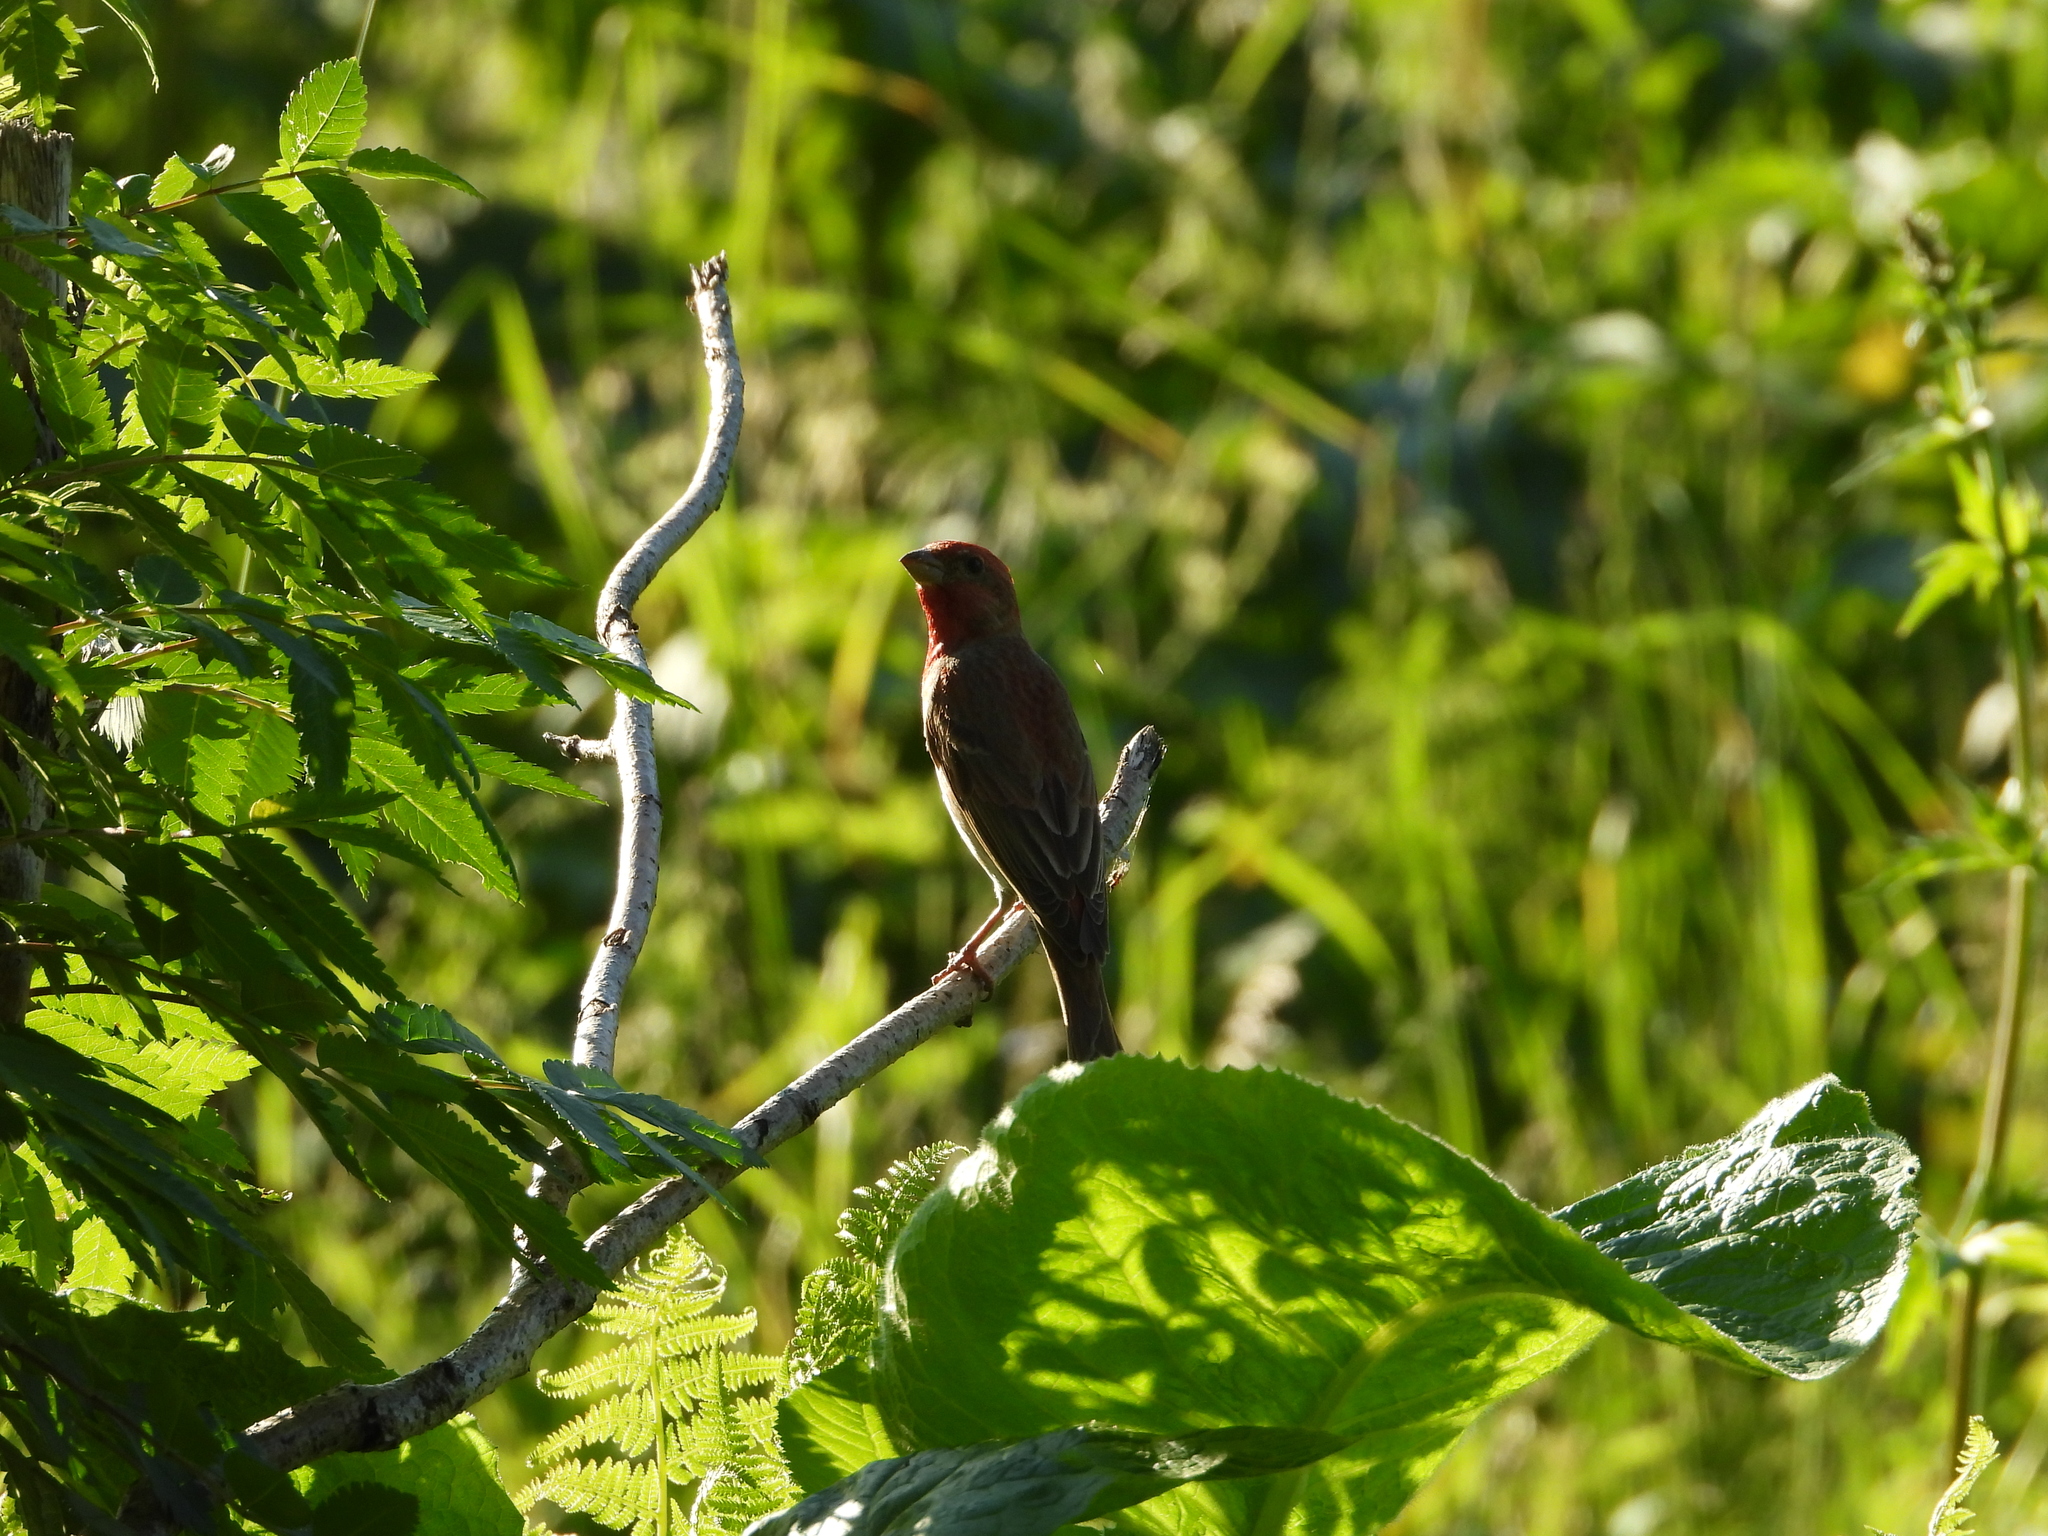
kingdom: Animalia
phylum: Chordata
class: Aves
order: Passeriformes
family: Fringillidae
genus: Carpodacus
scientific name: Carpodacus erythrinus
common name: Common rosefinch
